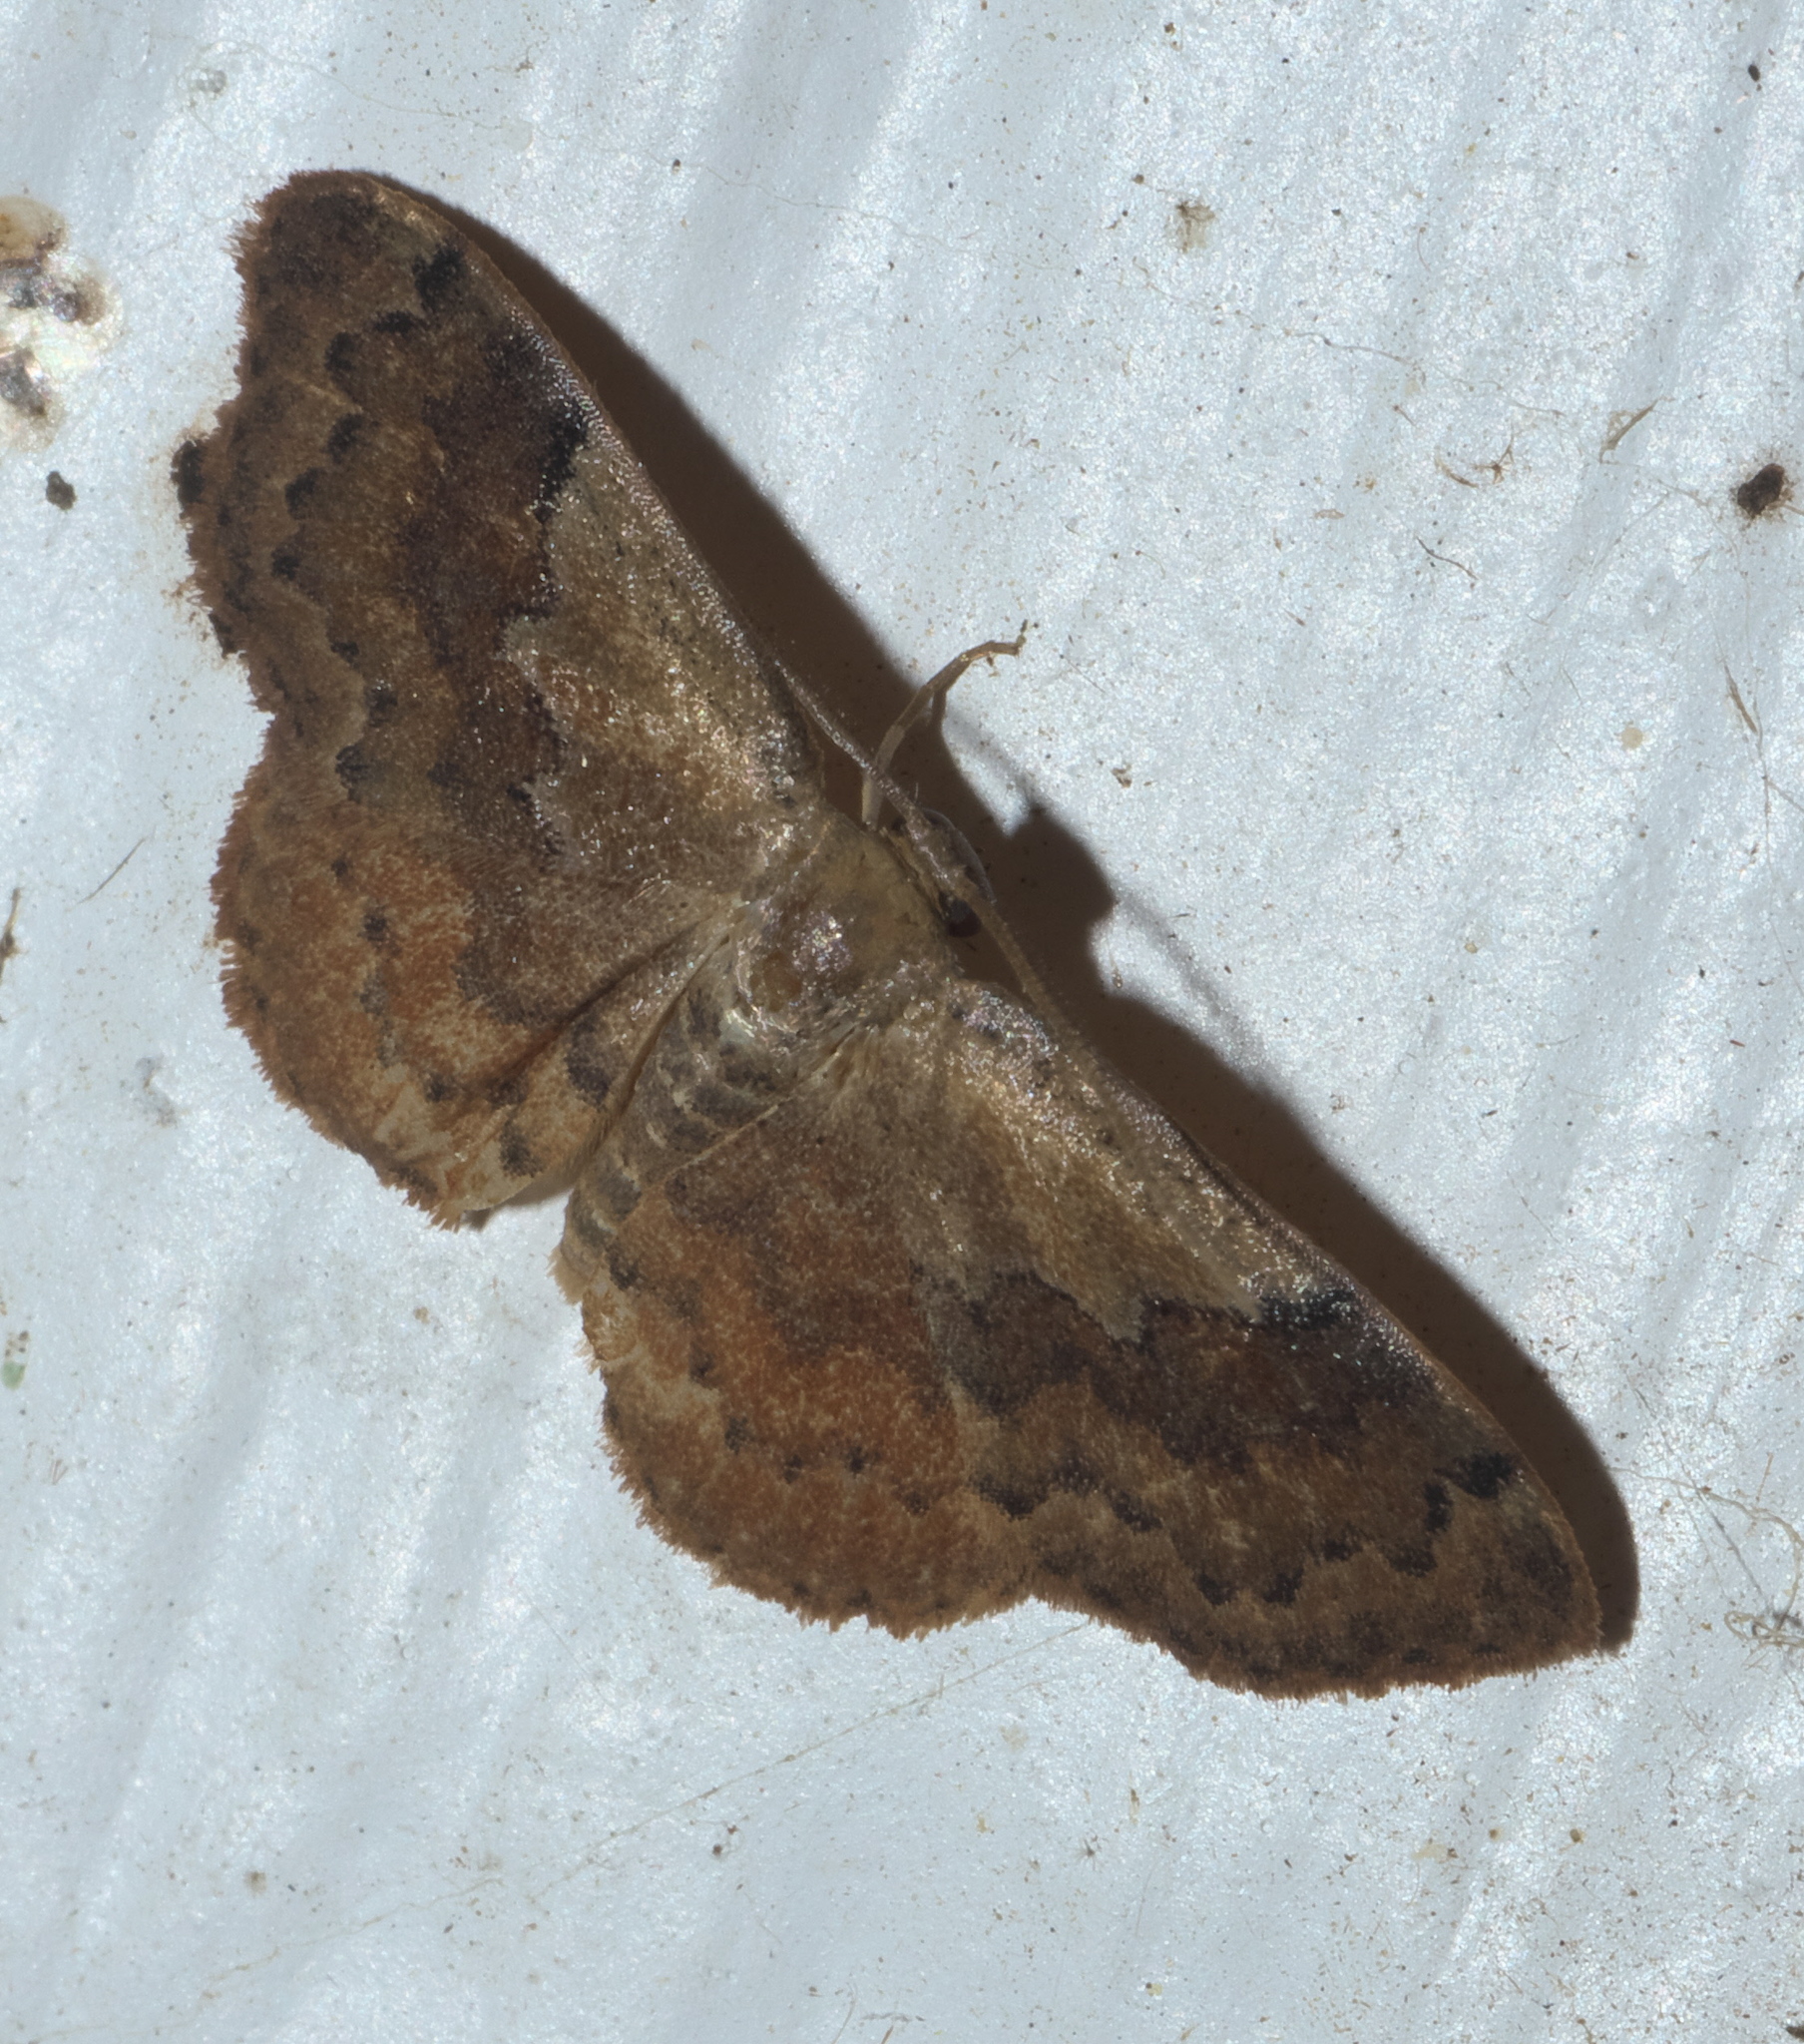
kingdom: Animalia
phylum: Arthropoda
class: Insecta
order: Lepidoptera
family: Geometridae
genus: Leptostales
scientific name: Leptostales ferruminaria
